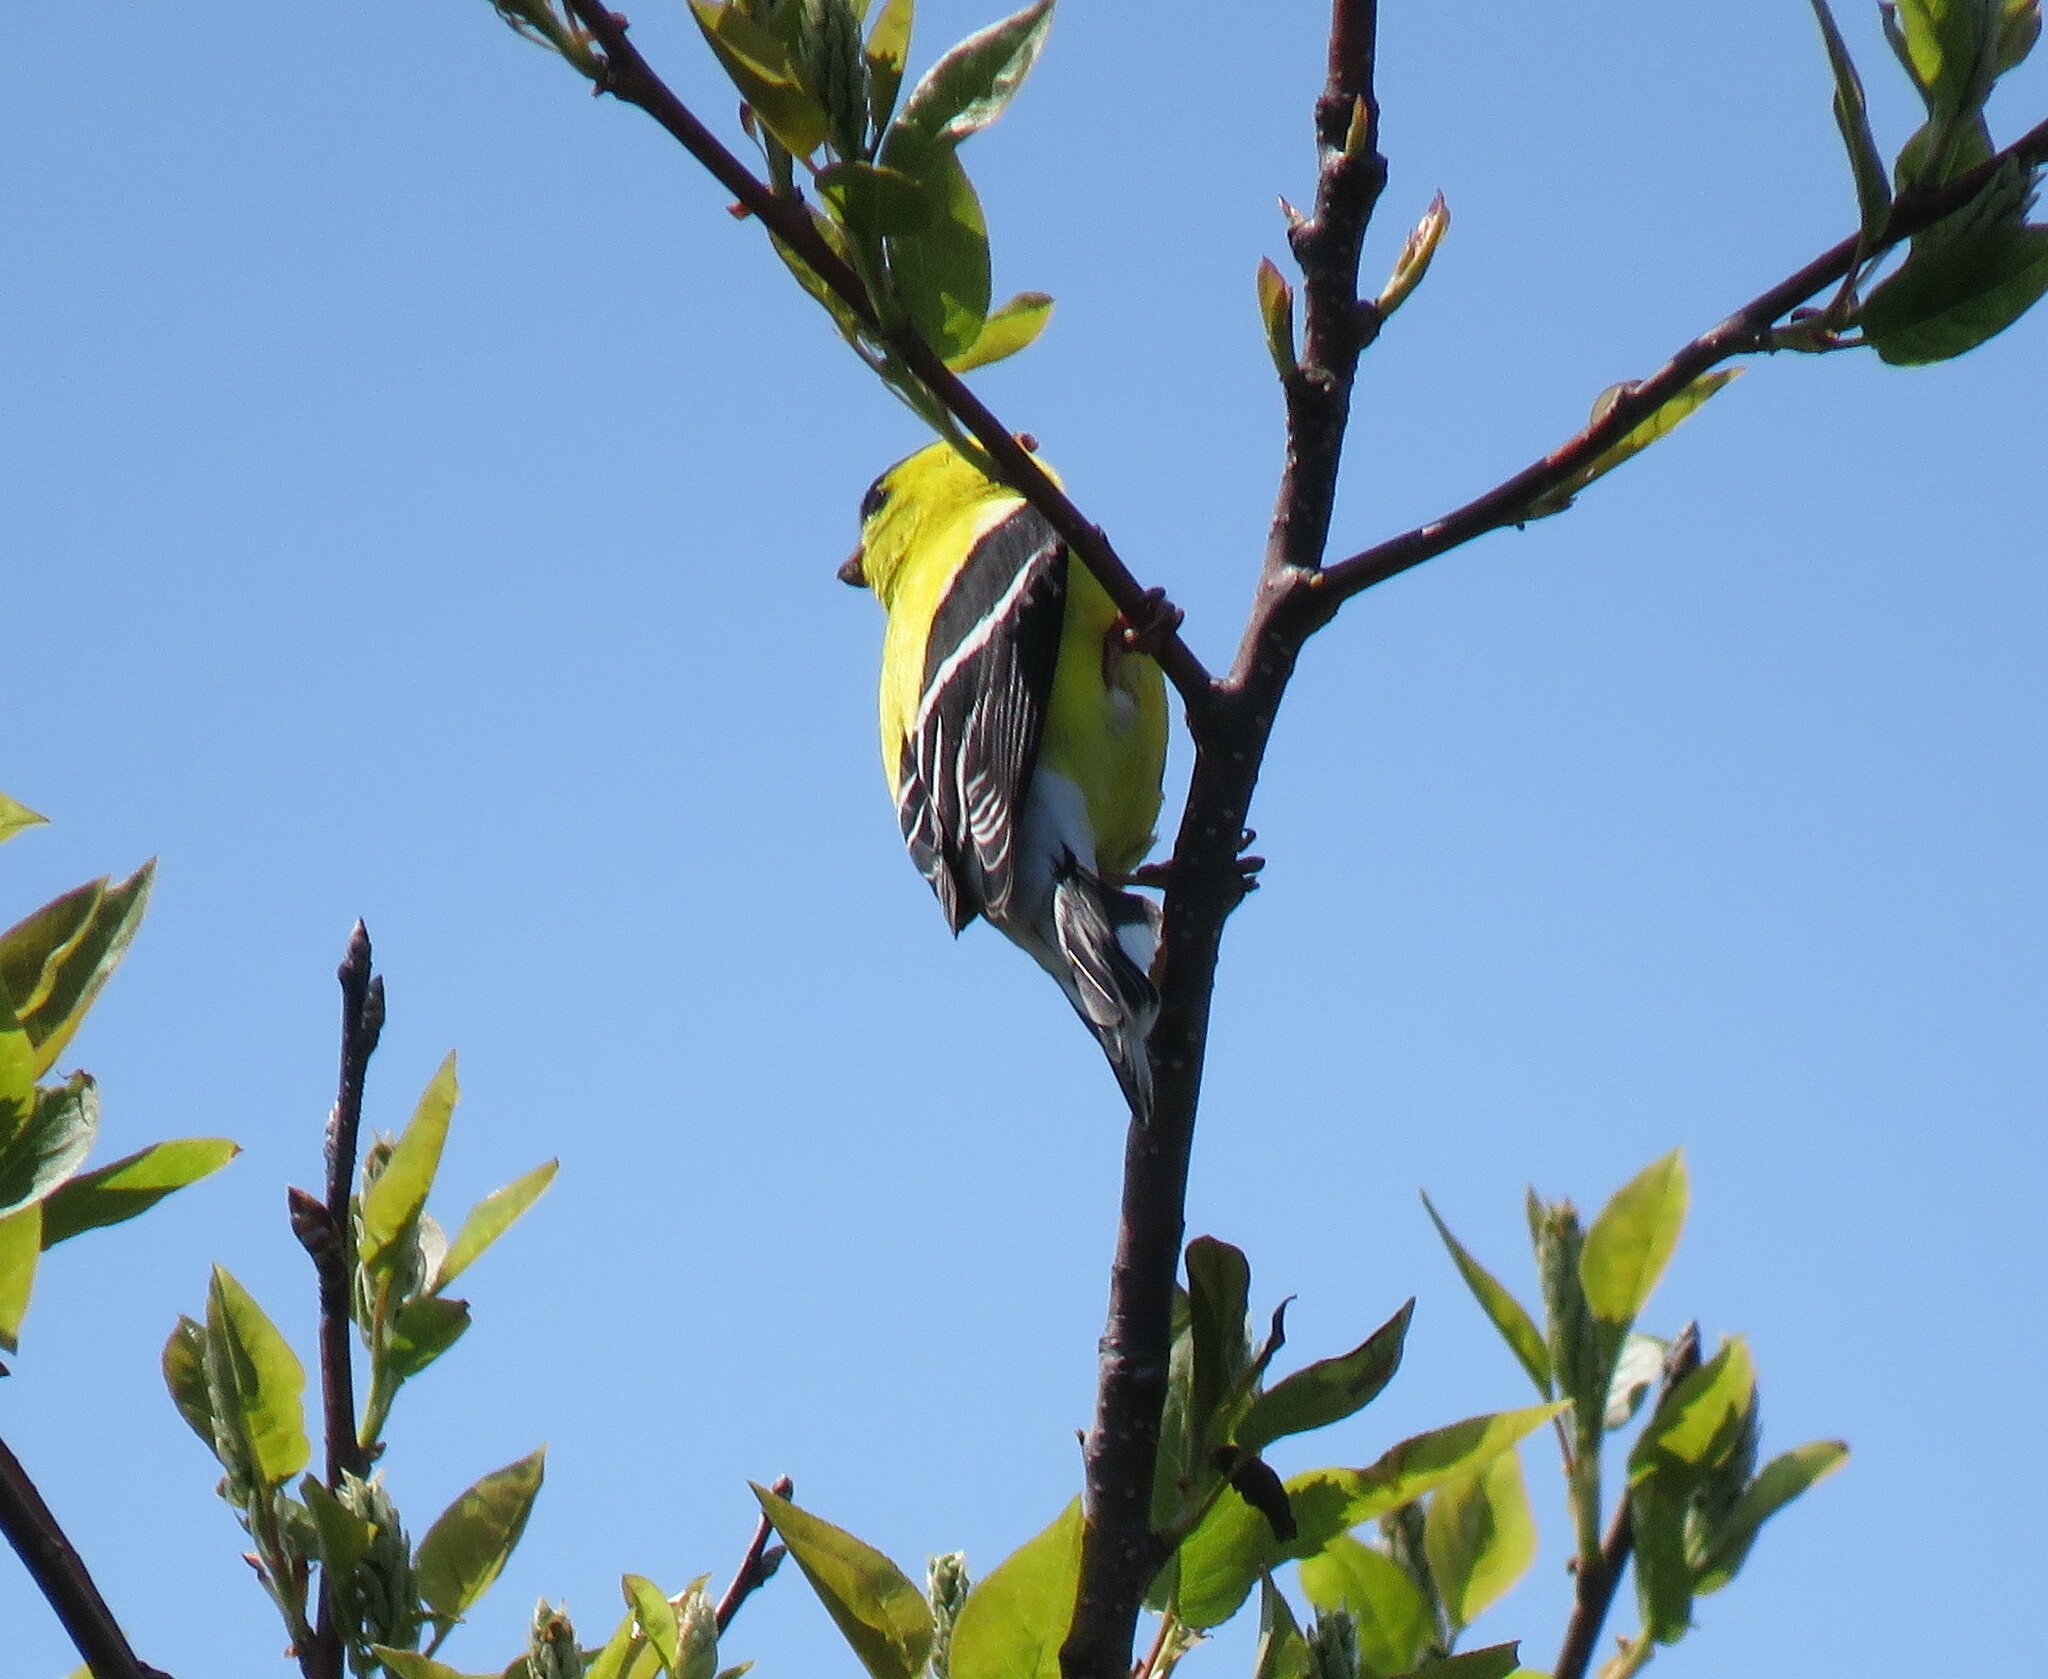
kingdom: Animalia
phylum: Chordata
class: Aves
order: Passeriformes
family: Fringillidae
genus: Spinus
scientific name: Spinus tristis
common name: American goldfinch
